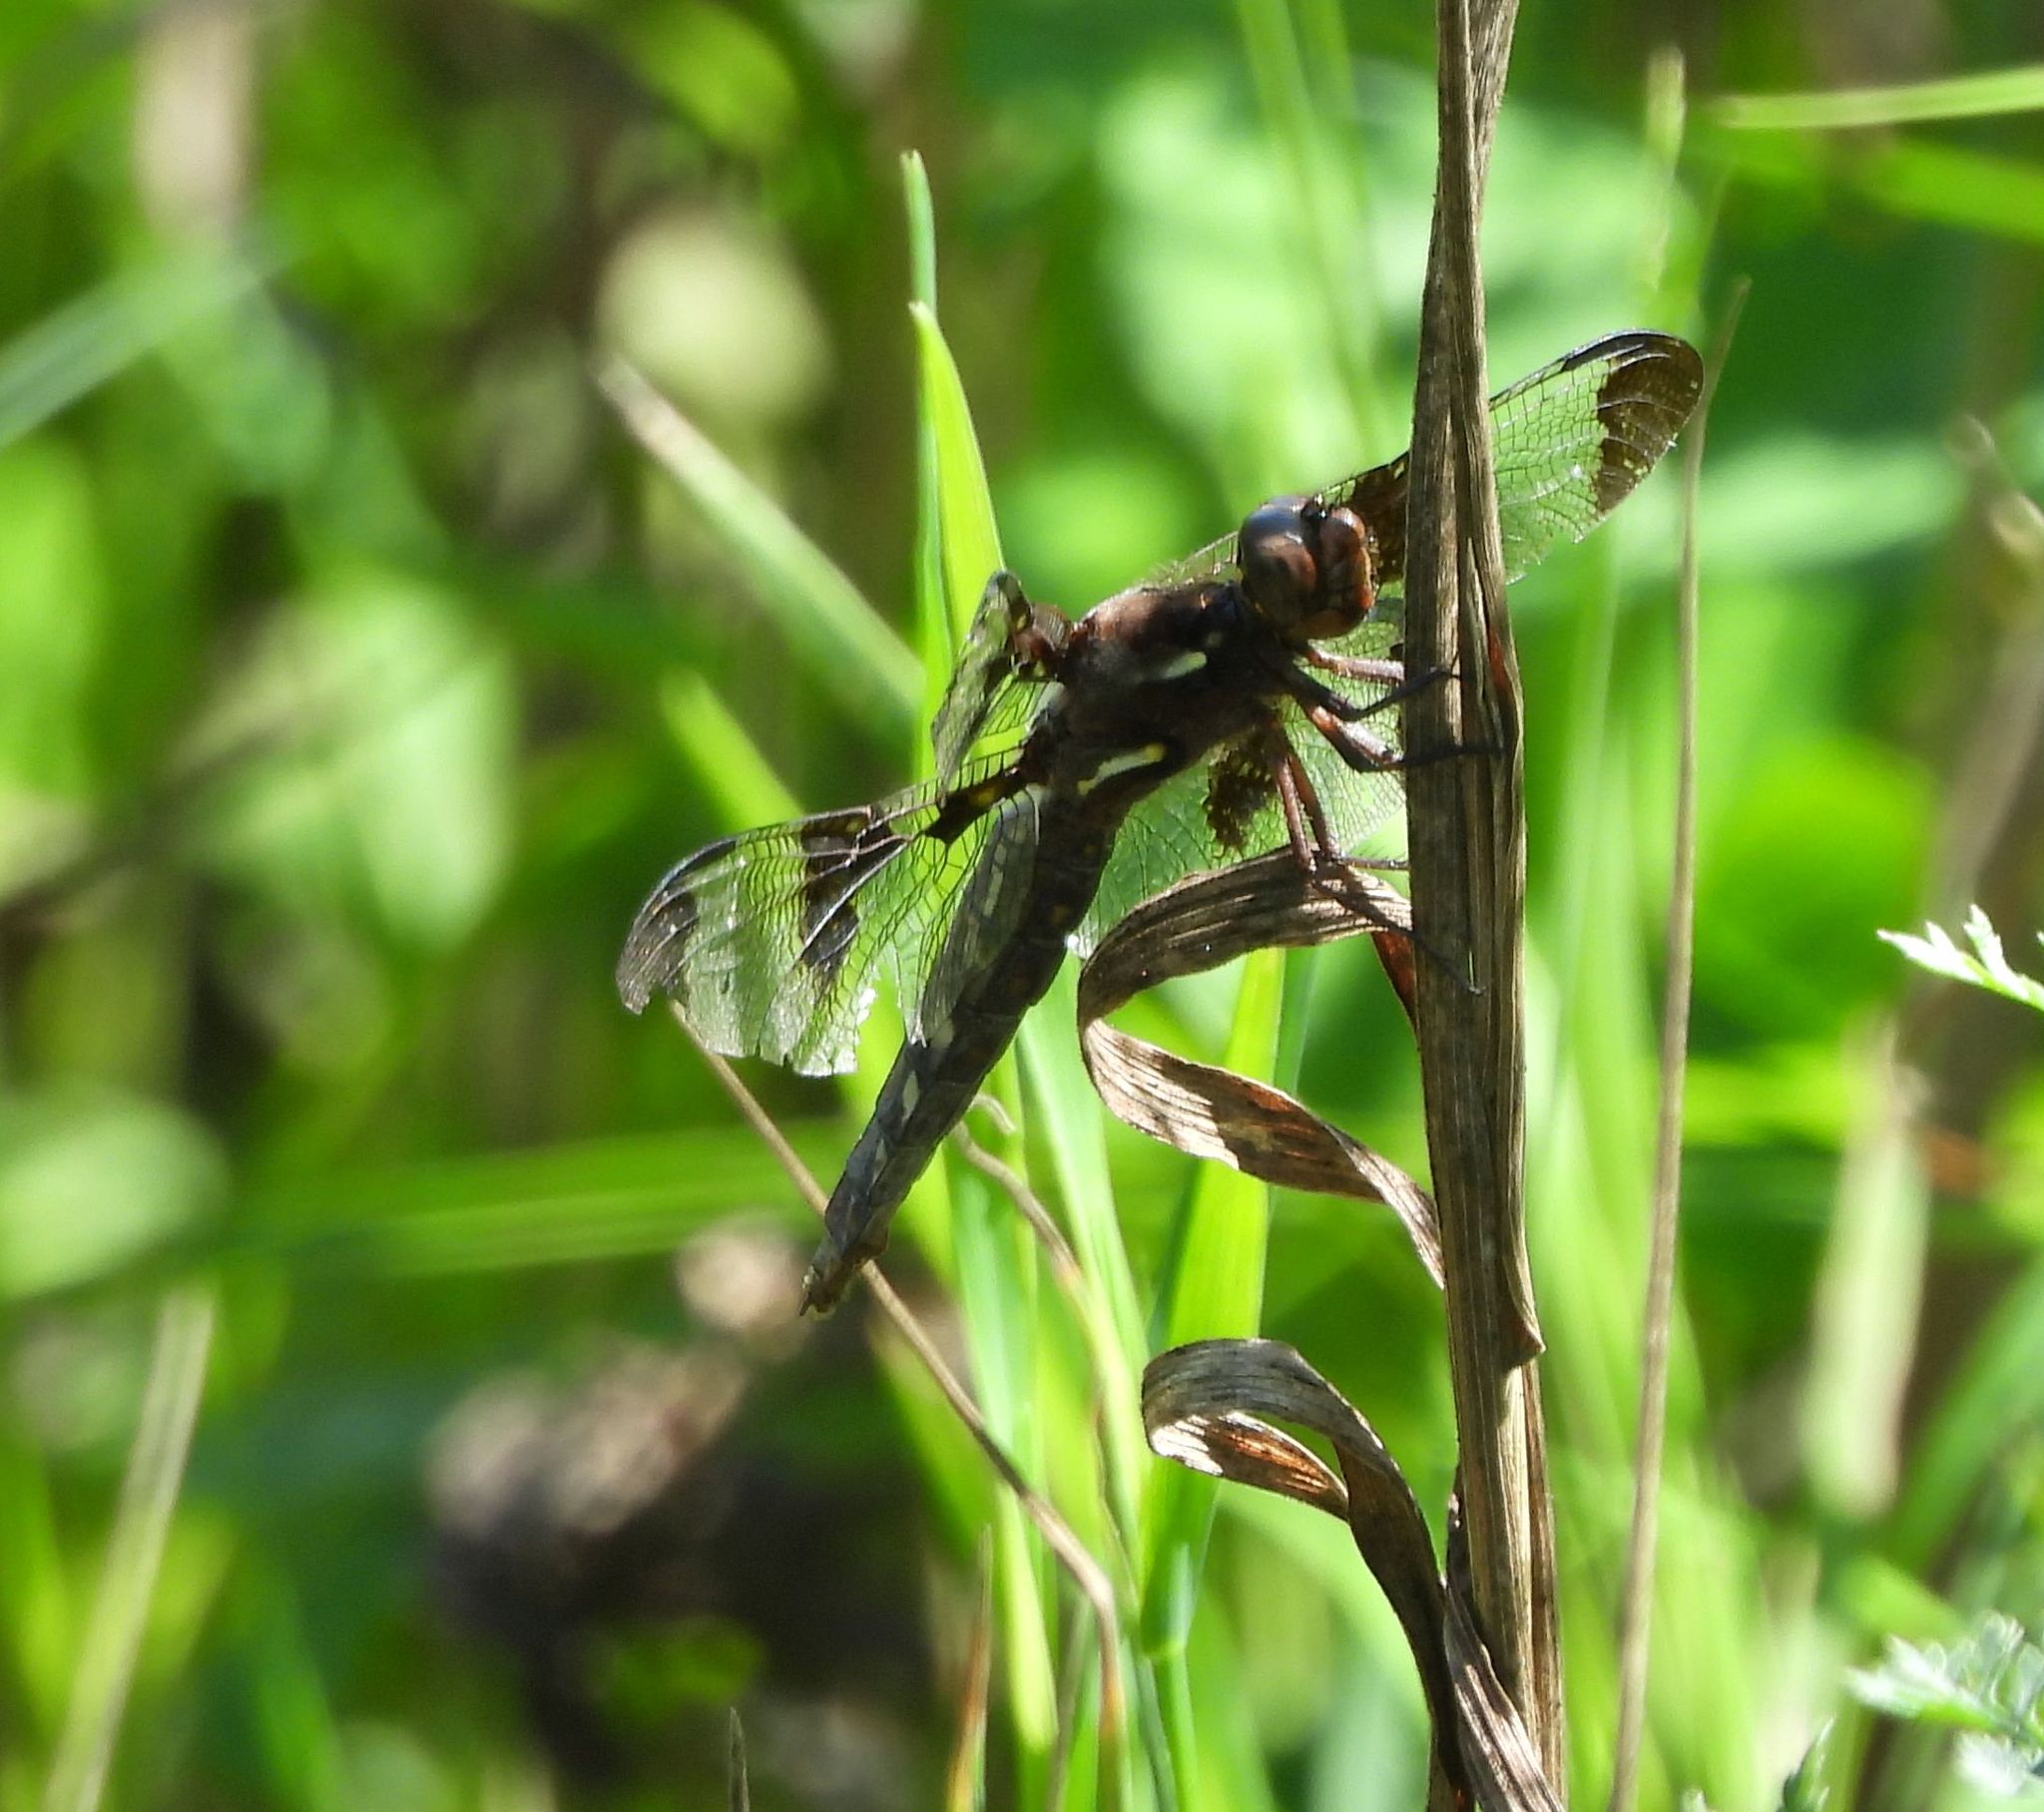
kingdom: Animalia
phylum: Arthropoda
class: Insecta
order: Odonata
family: Libellulidae
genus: Plathemis
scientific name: Plathemis lydia
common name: Common whitetail
